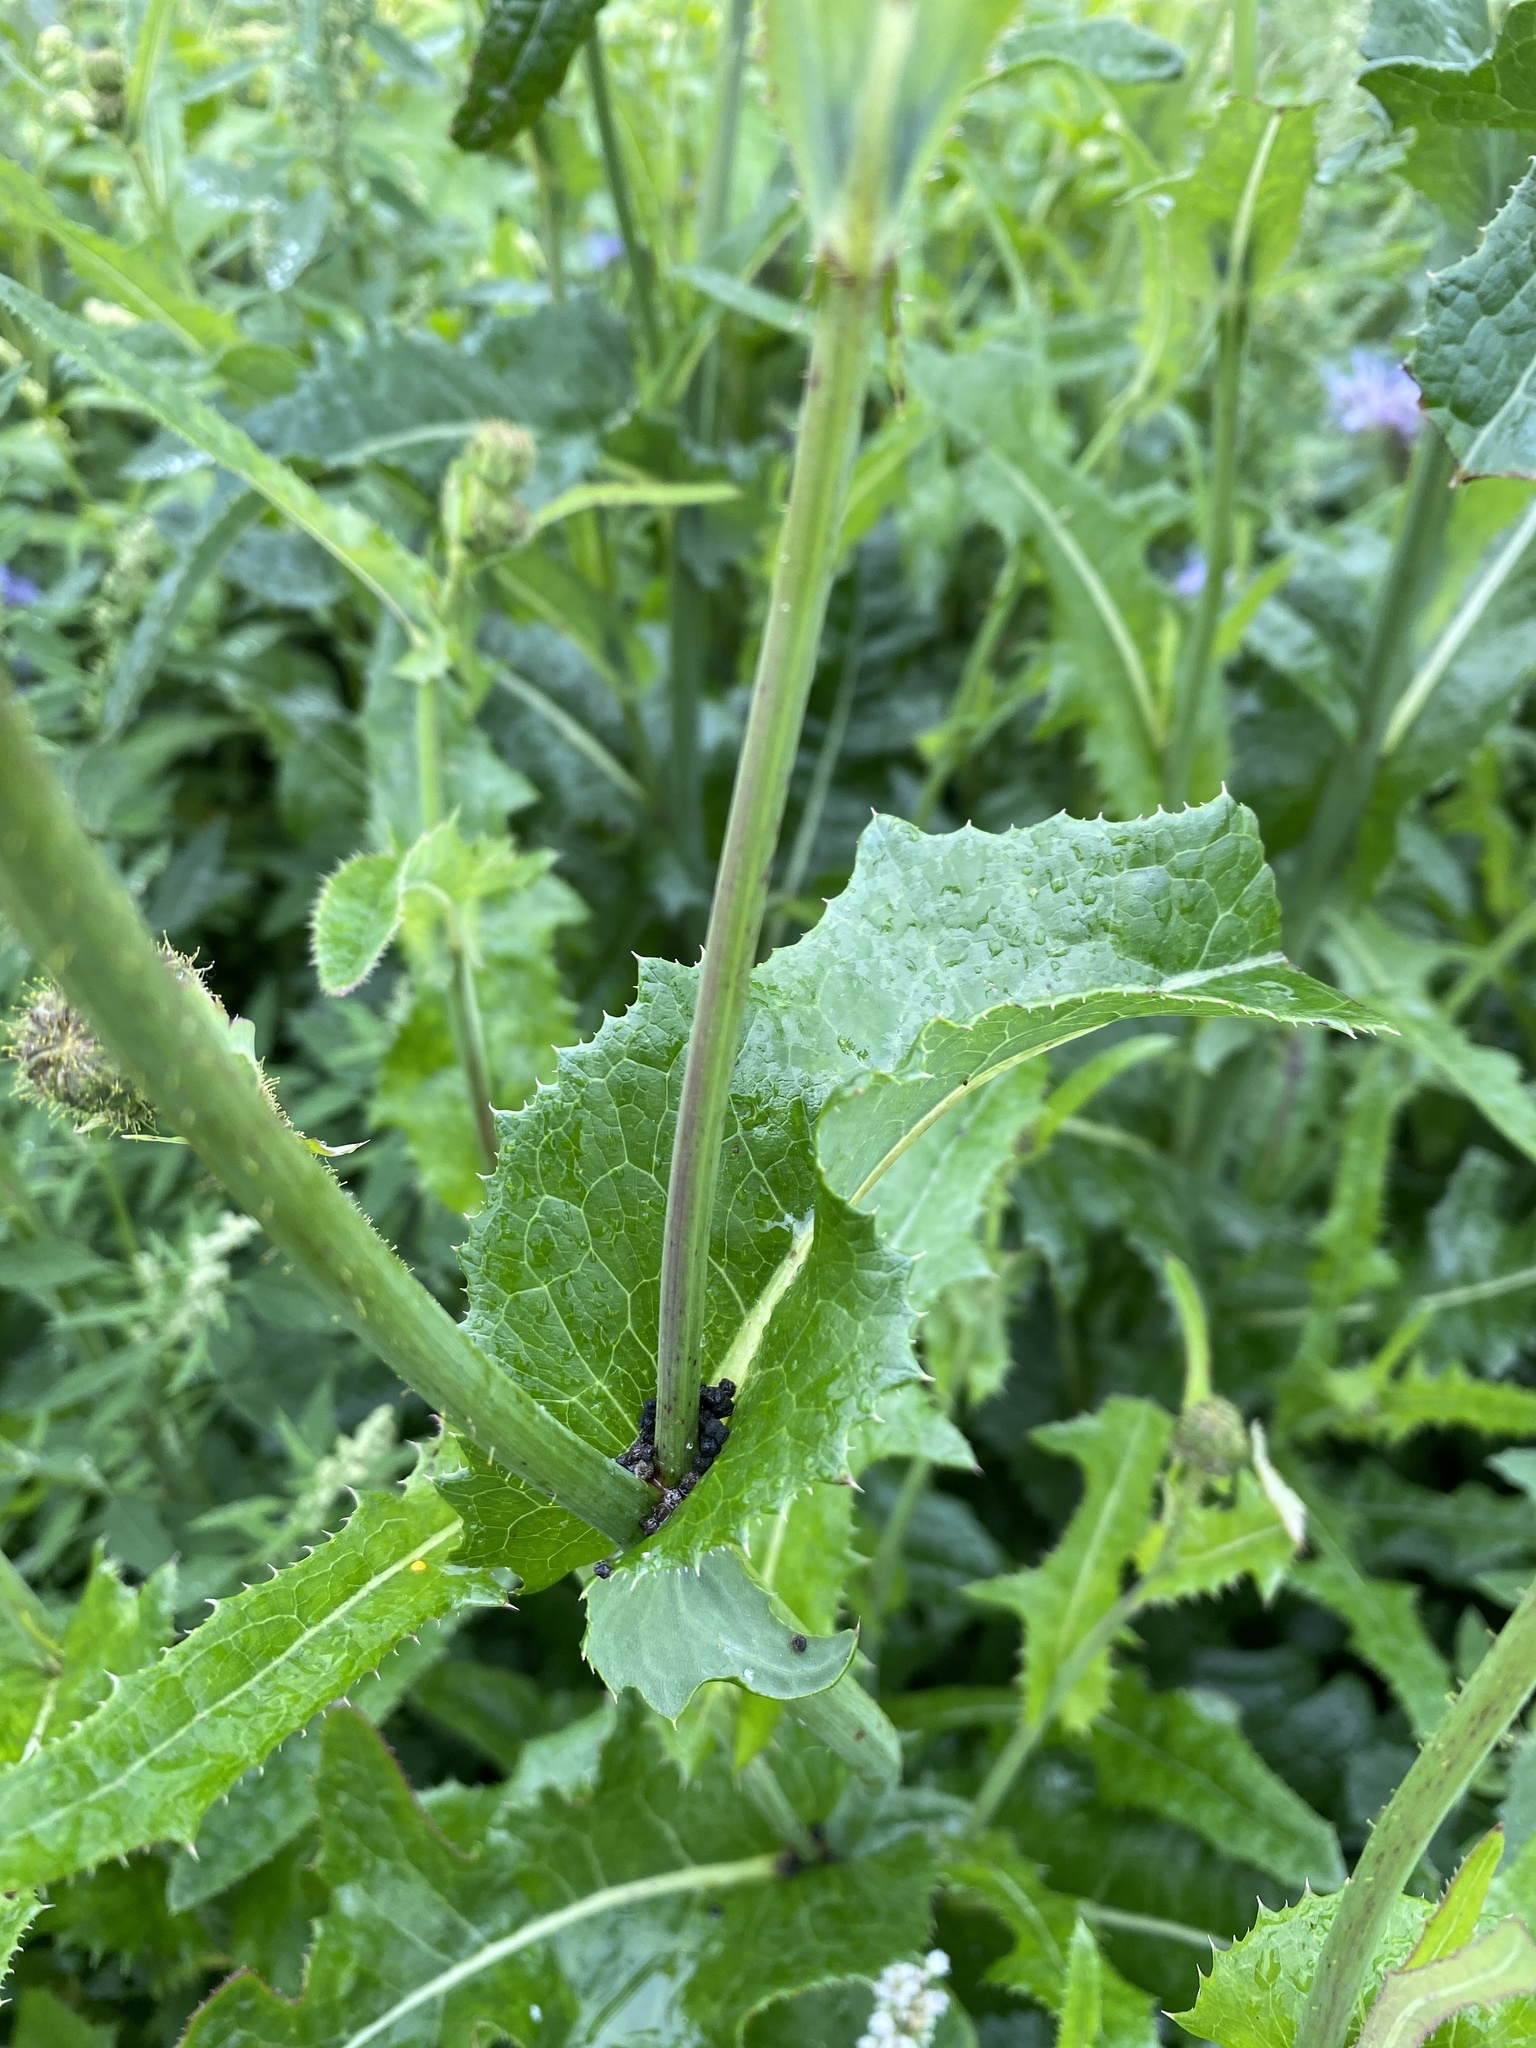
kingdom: Plantae
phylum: Tracheophyta
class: Magnoliopsida
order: Asterales
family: Asteraceae
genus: Sonchus
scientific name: Sonchus arvensis
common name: Perennial sow-thistle
